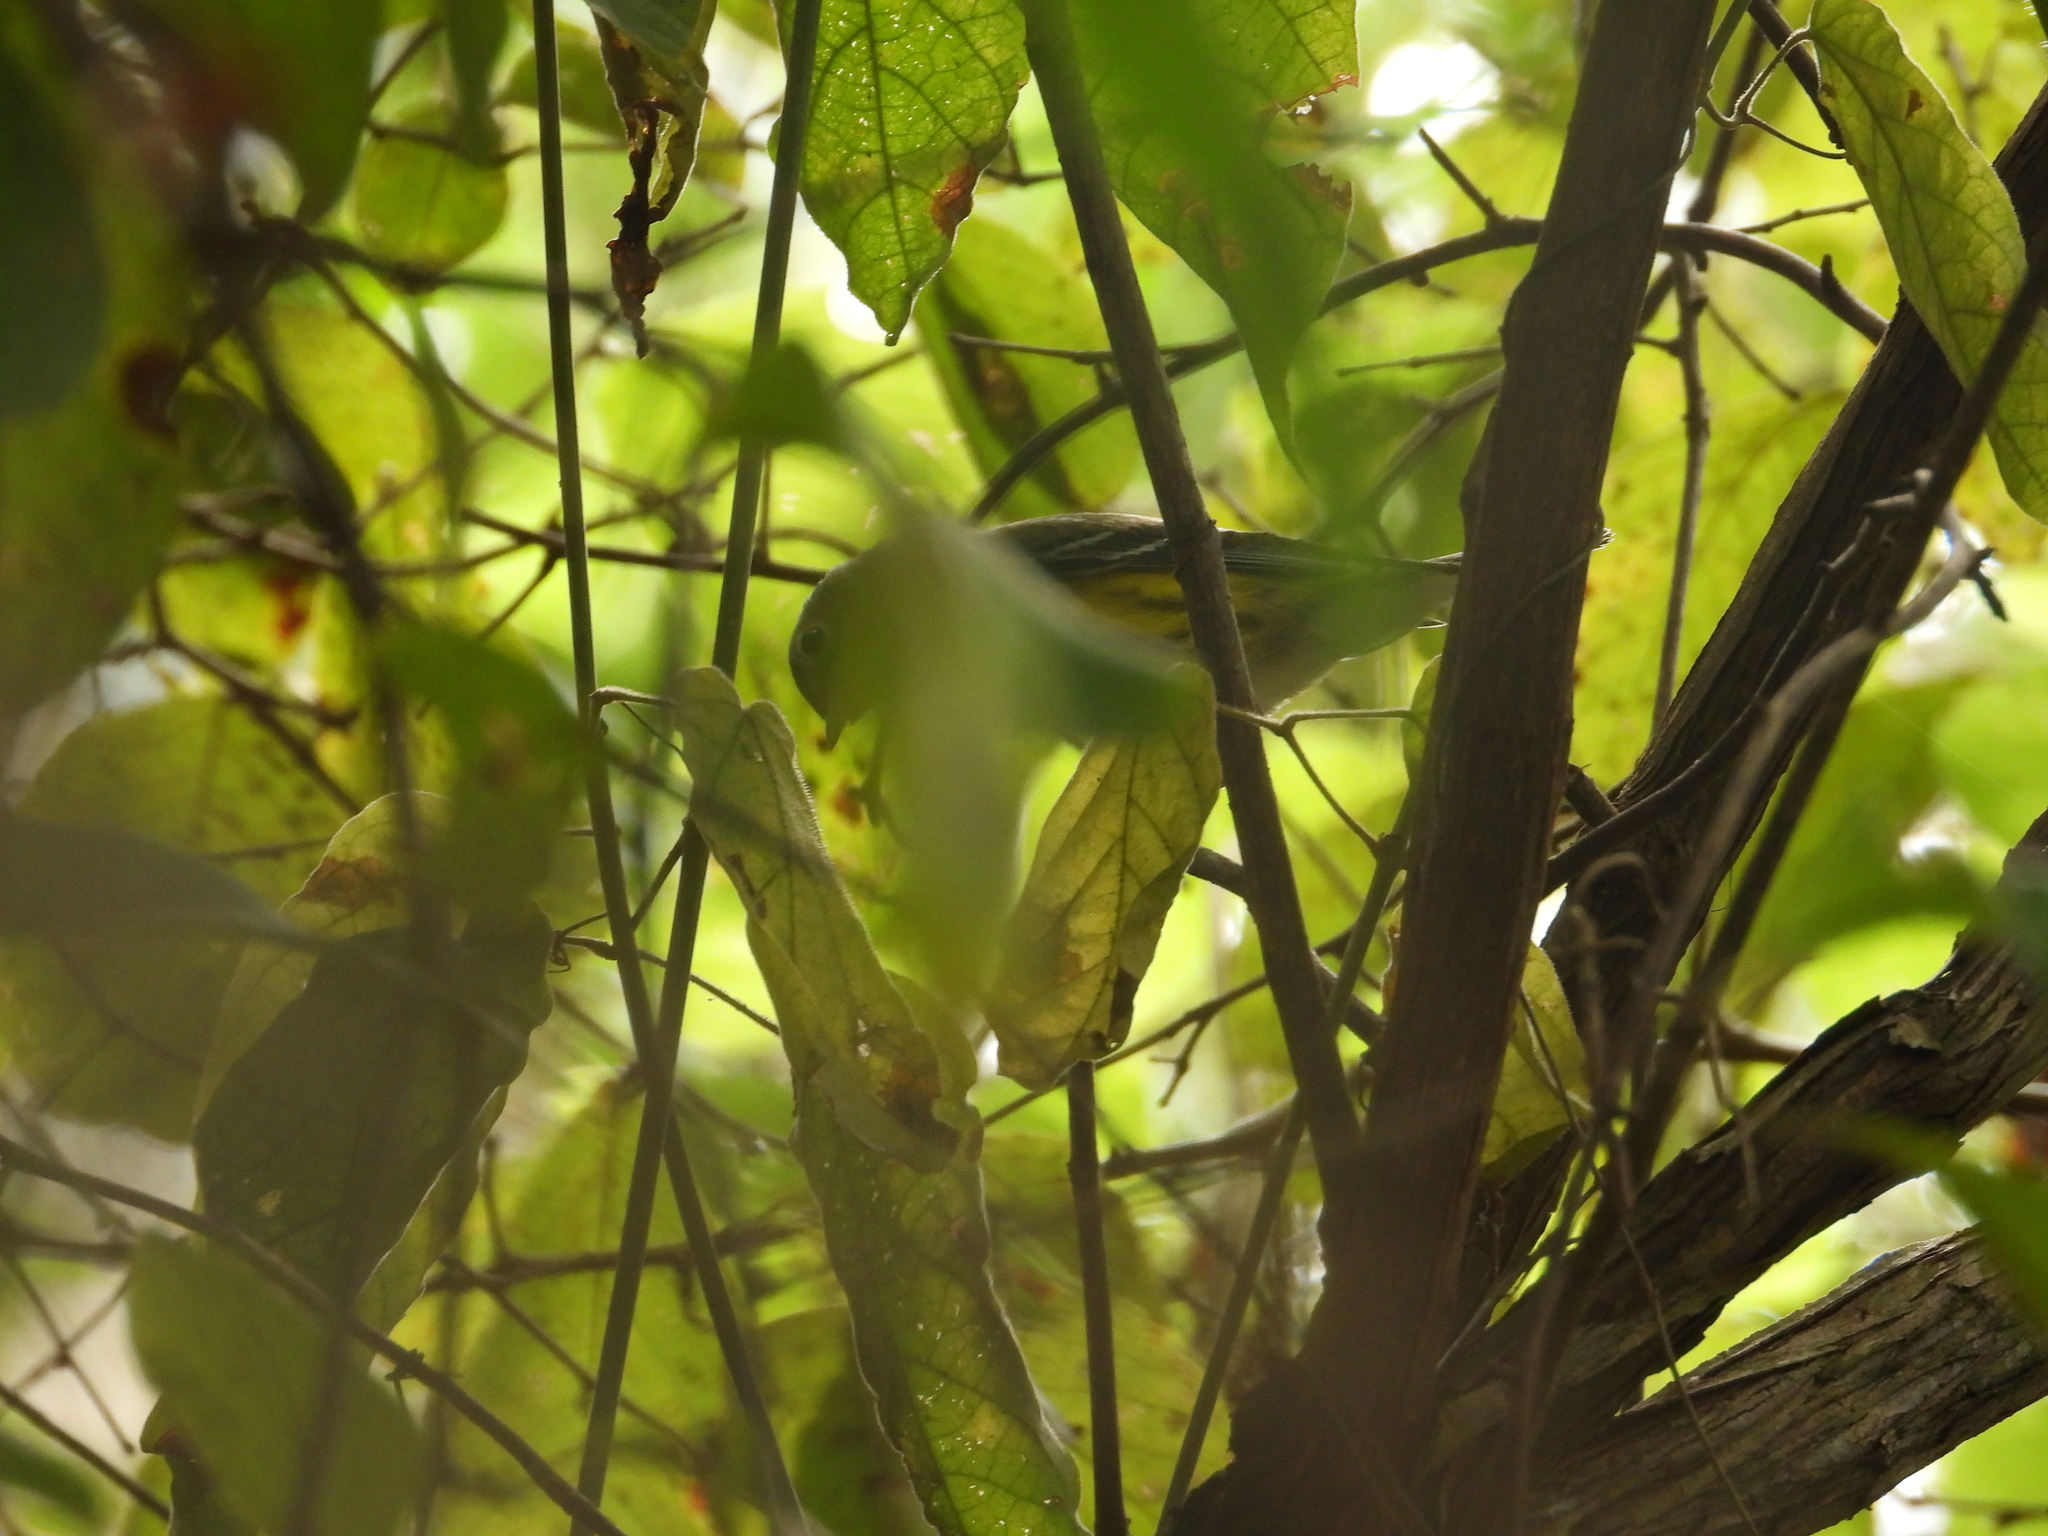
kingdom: Animalia
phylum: Chordata
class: Aves
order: Passeriformes
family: Parulidae
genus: Setophaga
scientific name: Setophaga magnolia
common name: Magnolia warbler
